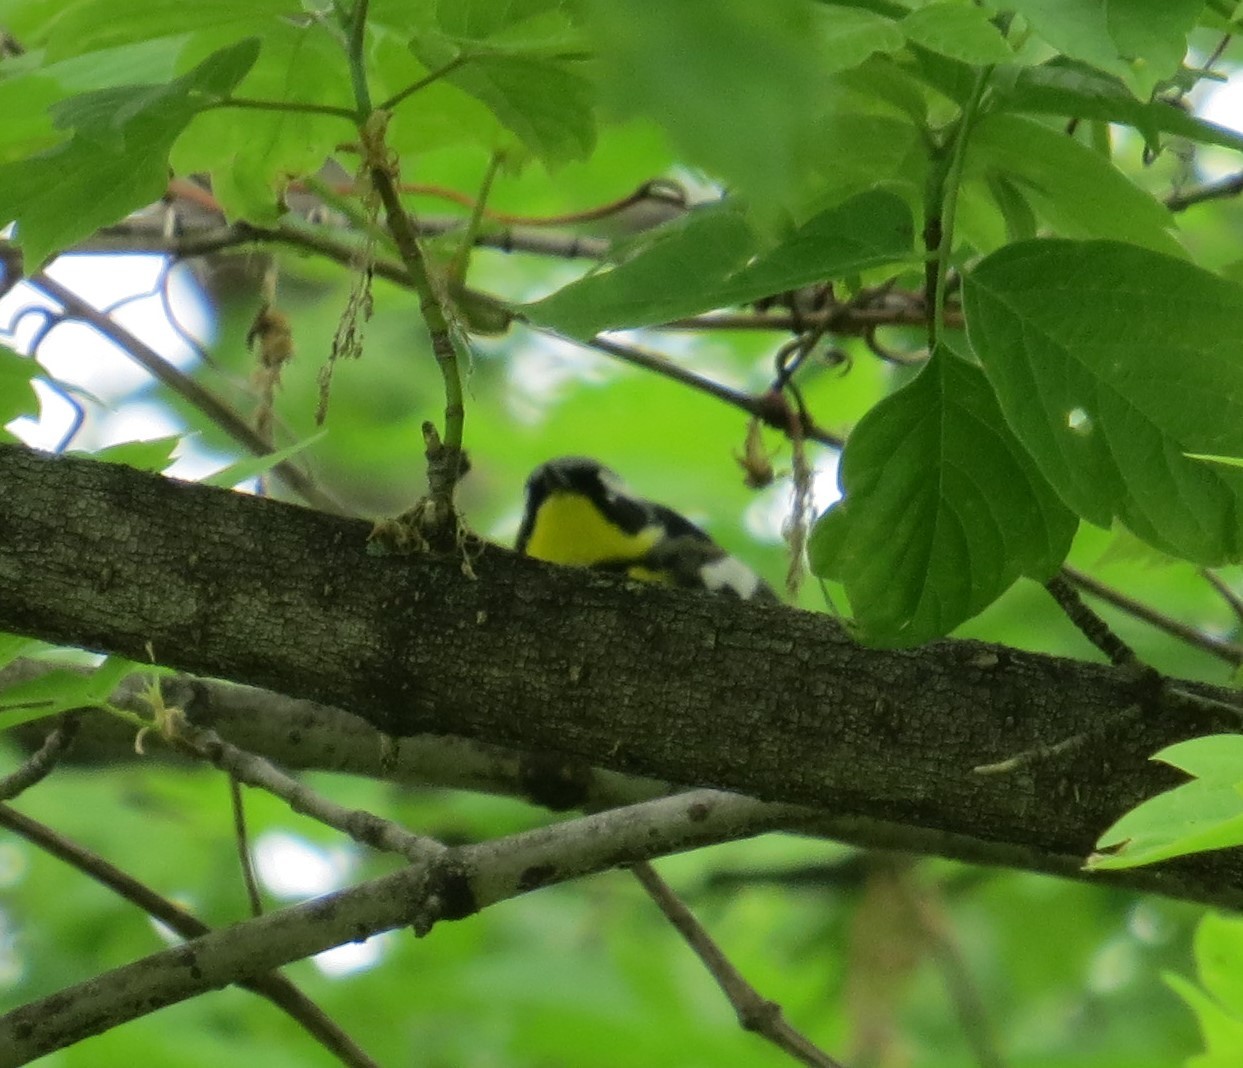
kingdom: Animalia
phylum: Chordata
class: Aves
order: Passeriformes
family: Parulidae
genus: Setophaga
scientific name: Setophaga magnolia
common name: Magnolia warbler
